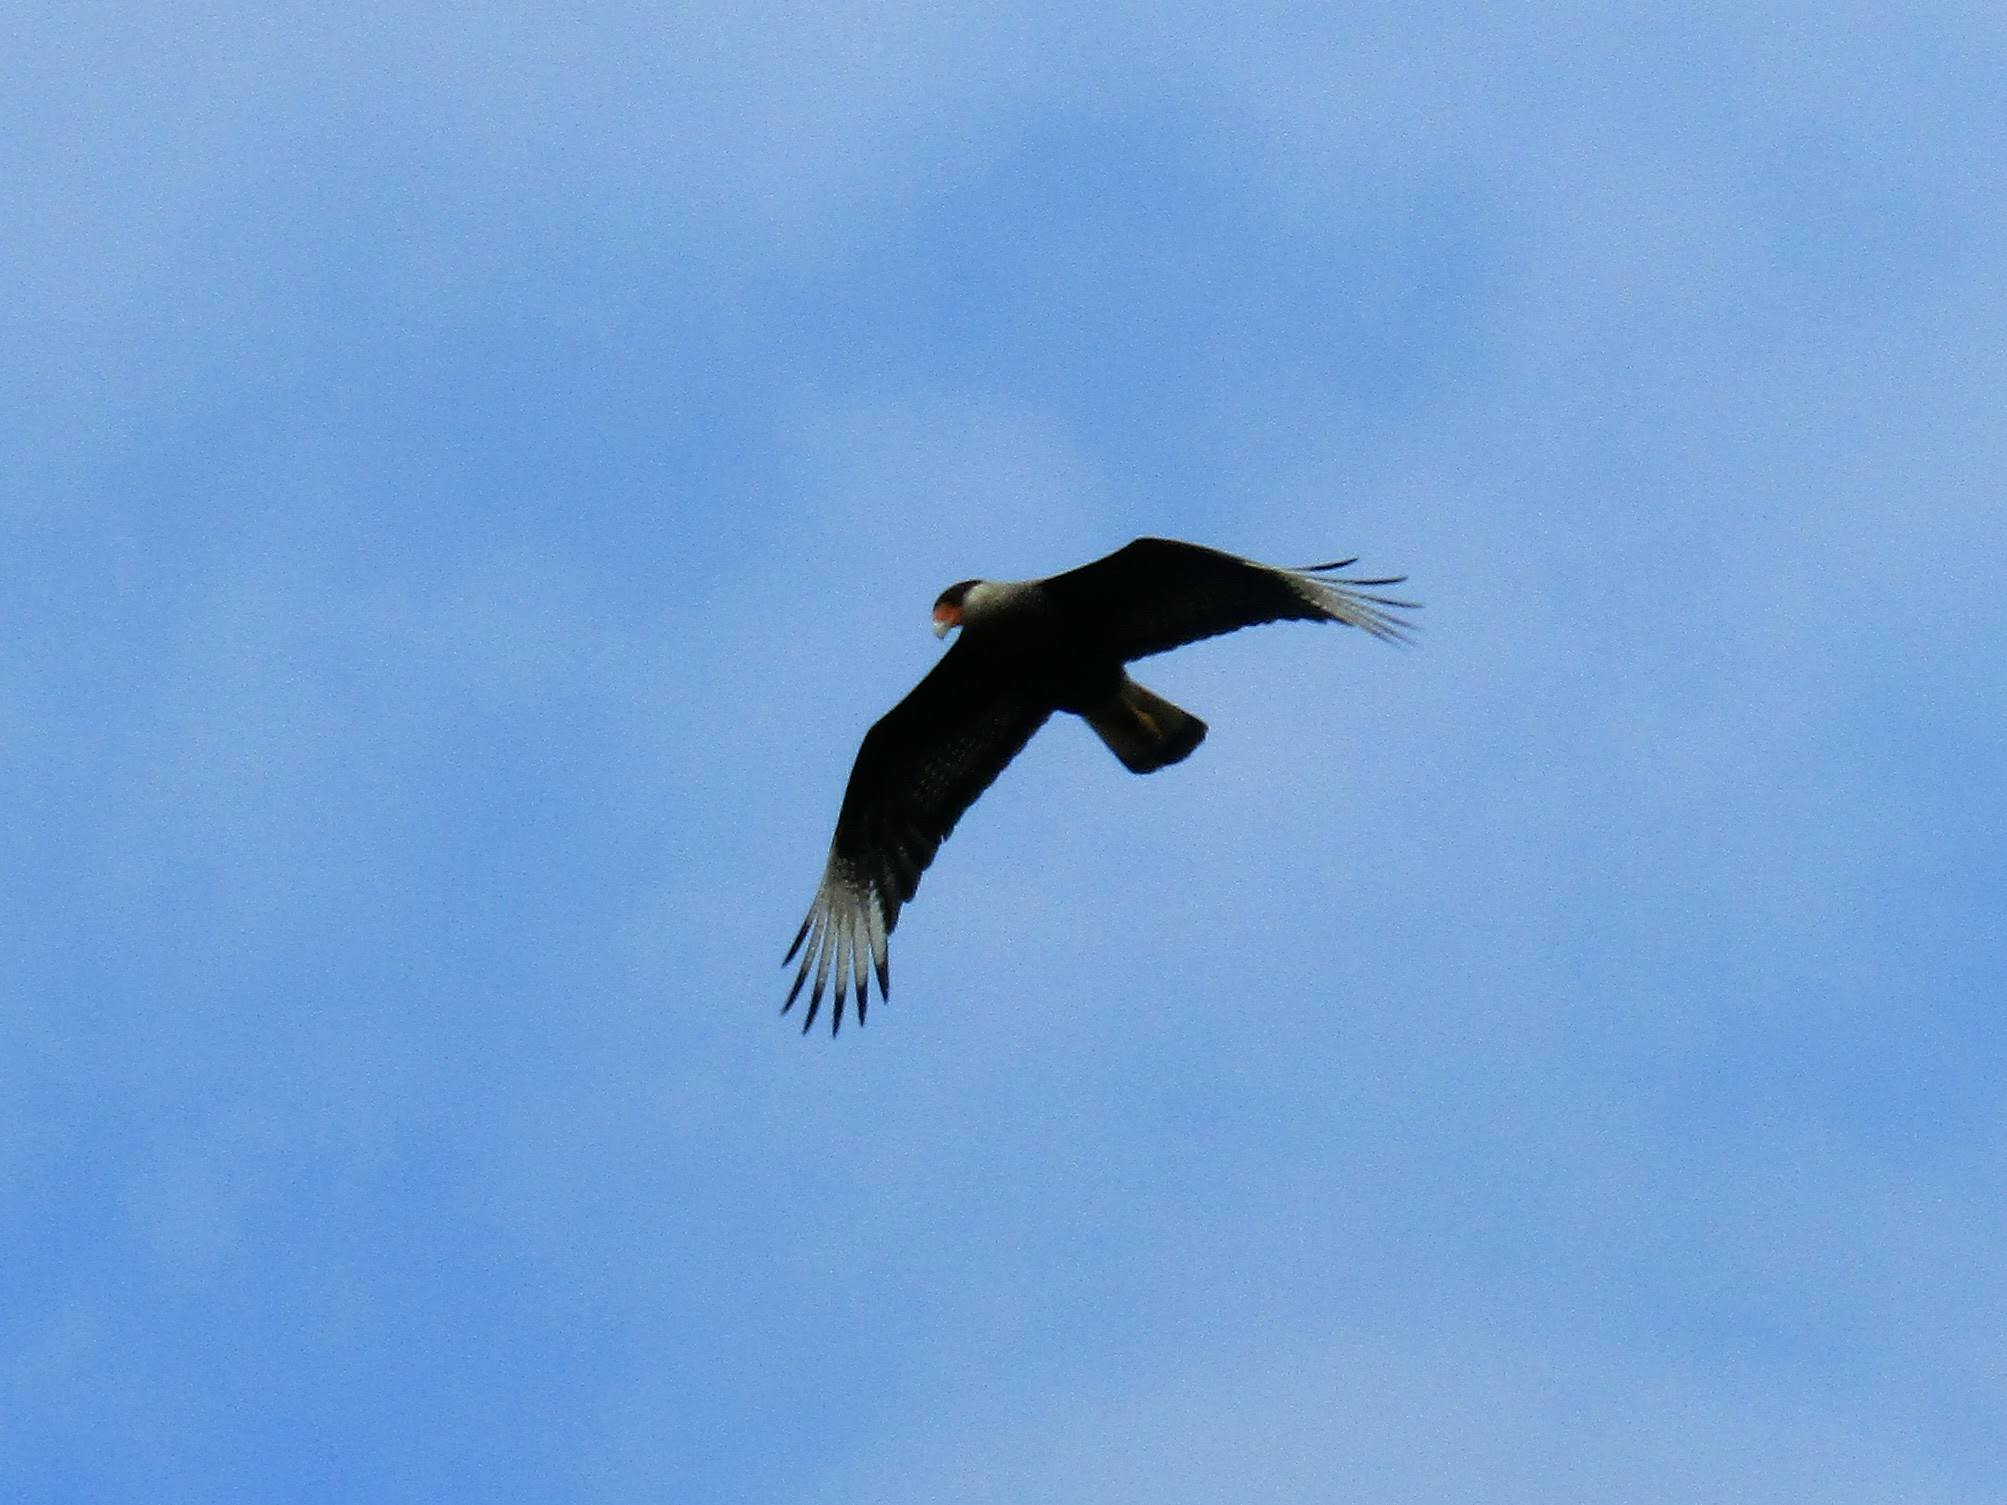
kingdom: Animalia
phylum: Chordata
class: Aves
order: Falconiformes
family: Falconidae
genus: Caracara
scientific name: Caracara plancus
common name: Southern caracara
